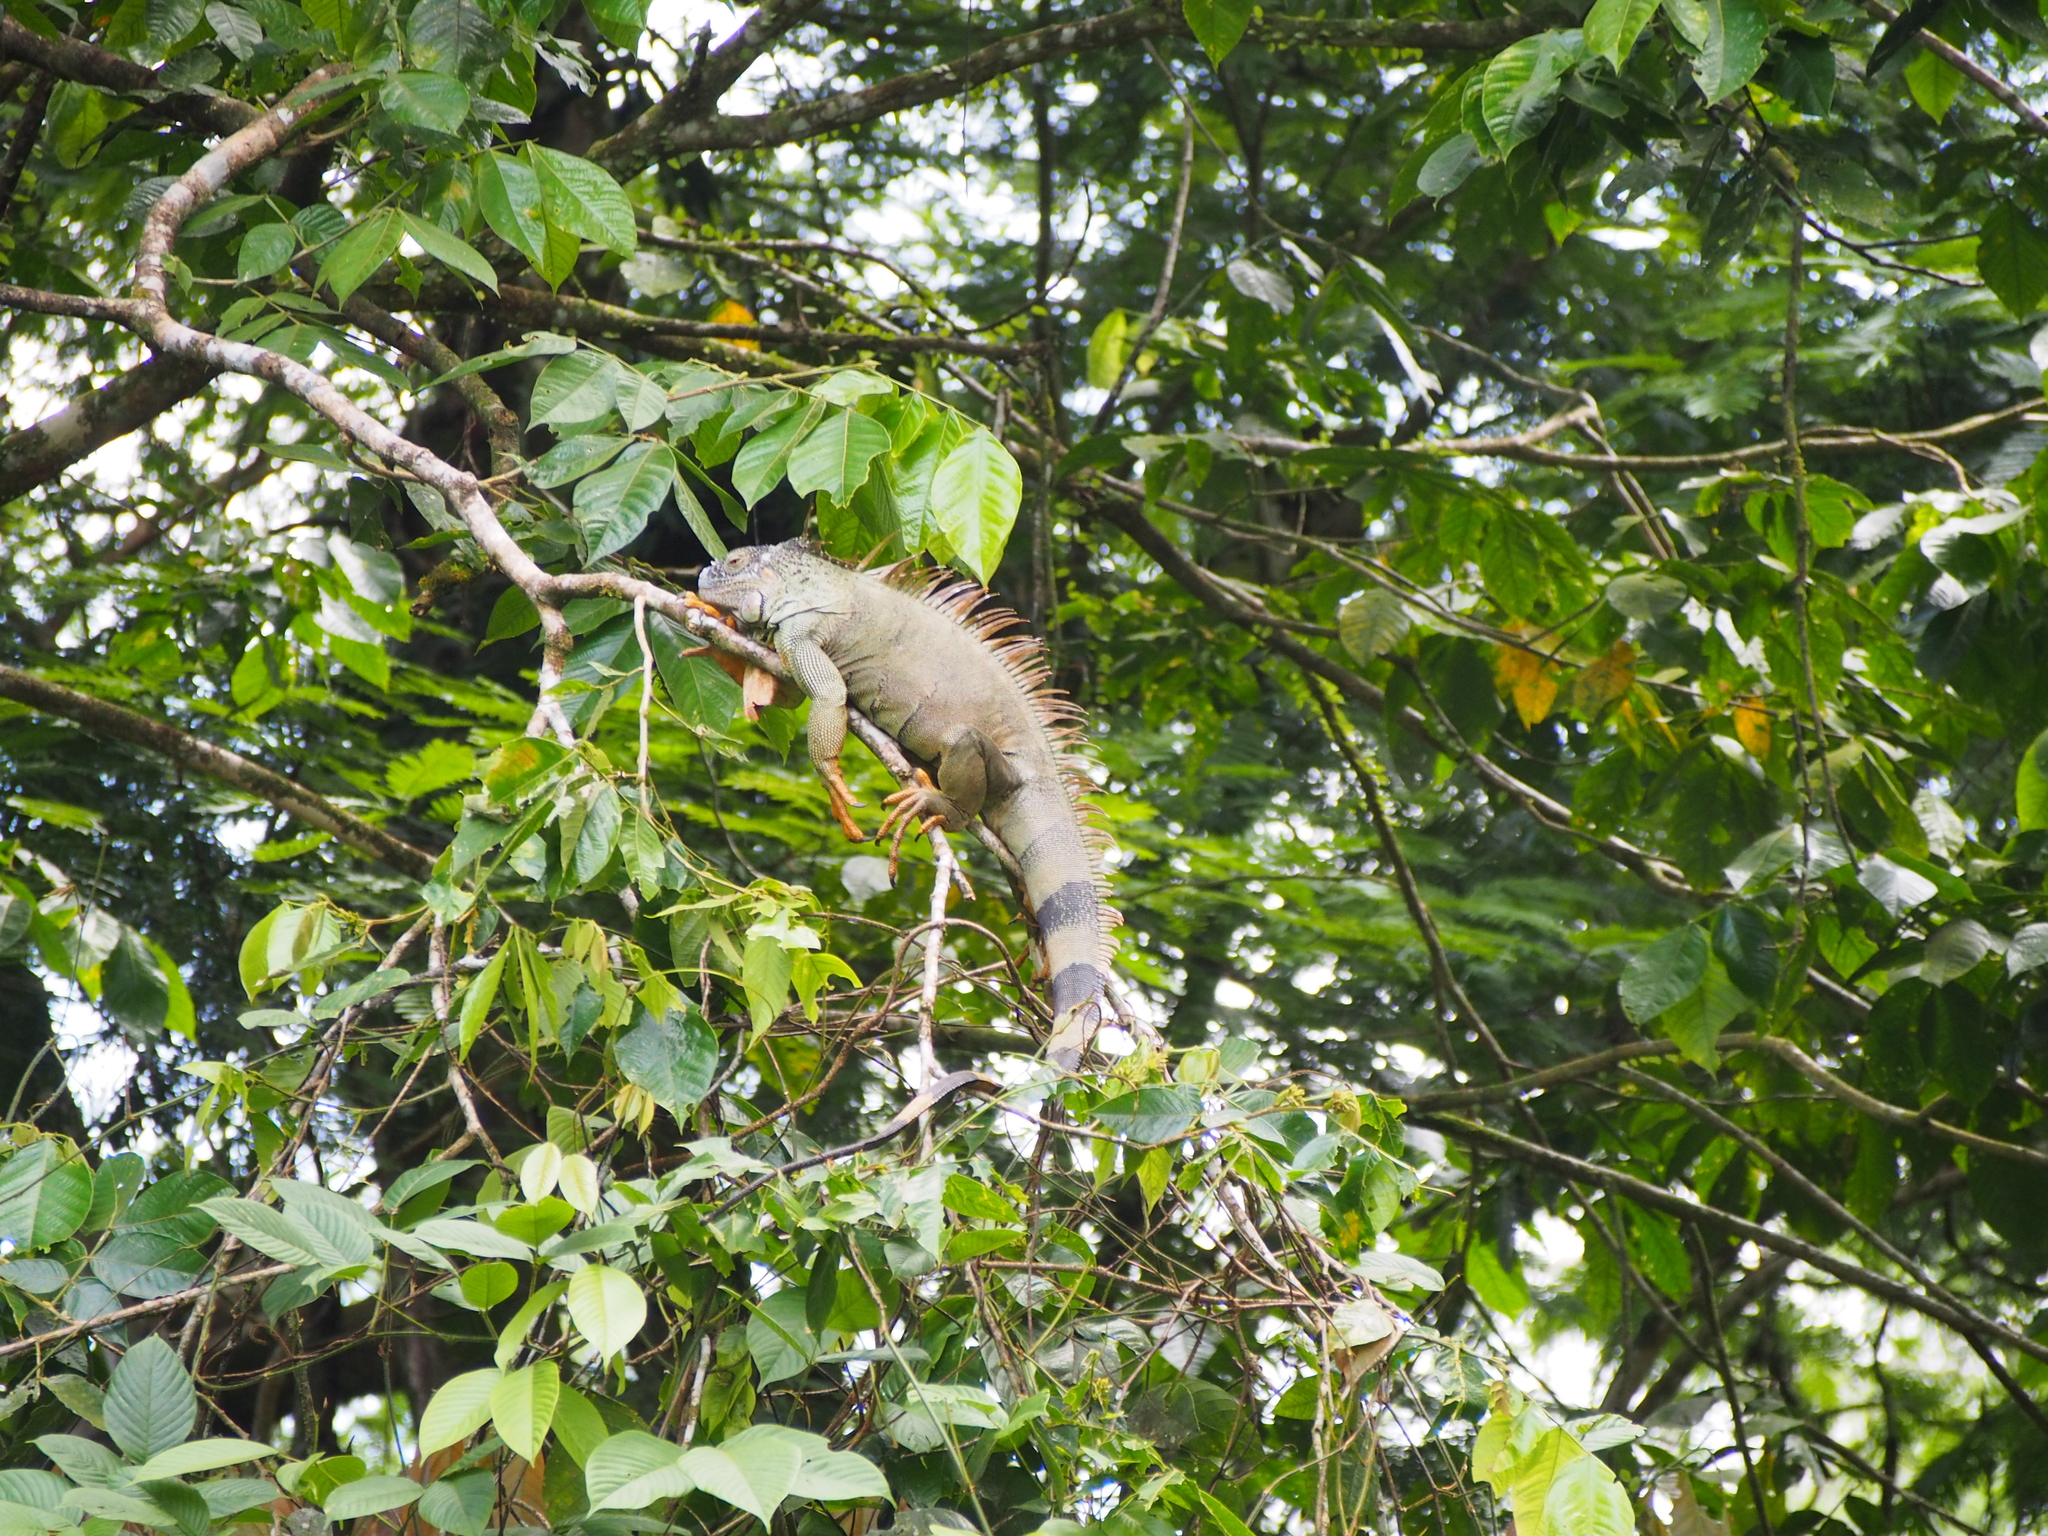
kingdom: Animalia
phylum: Chordata
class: Squamata
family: Iguanidae
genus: Iguana
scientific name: Iguana iguana
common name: Green iguana
